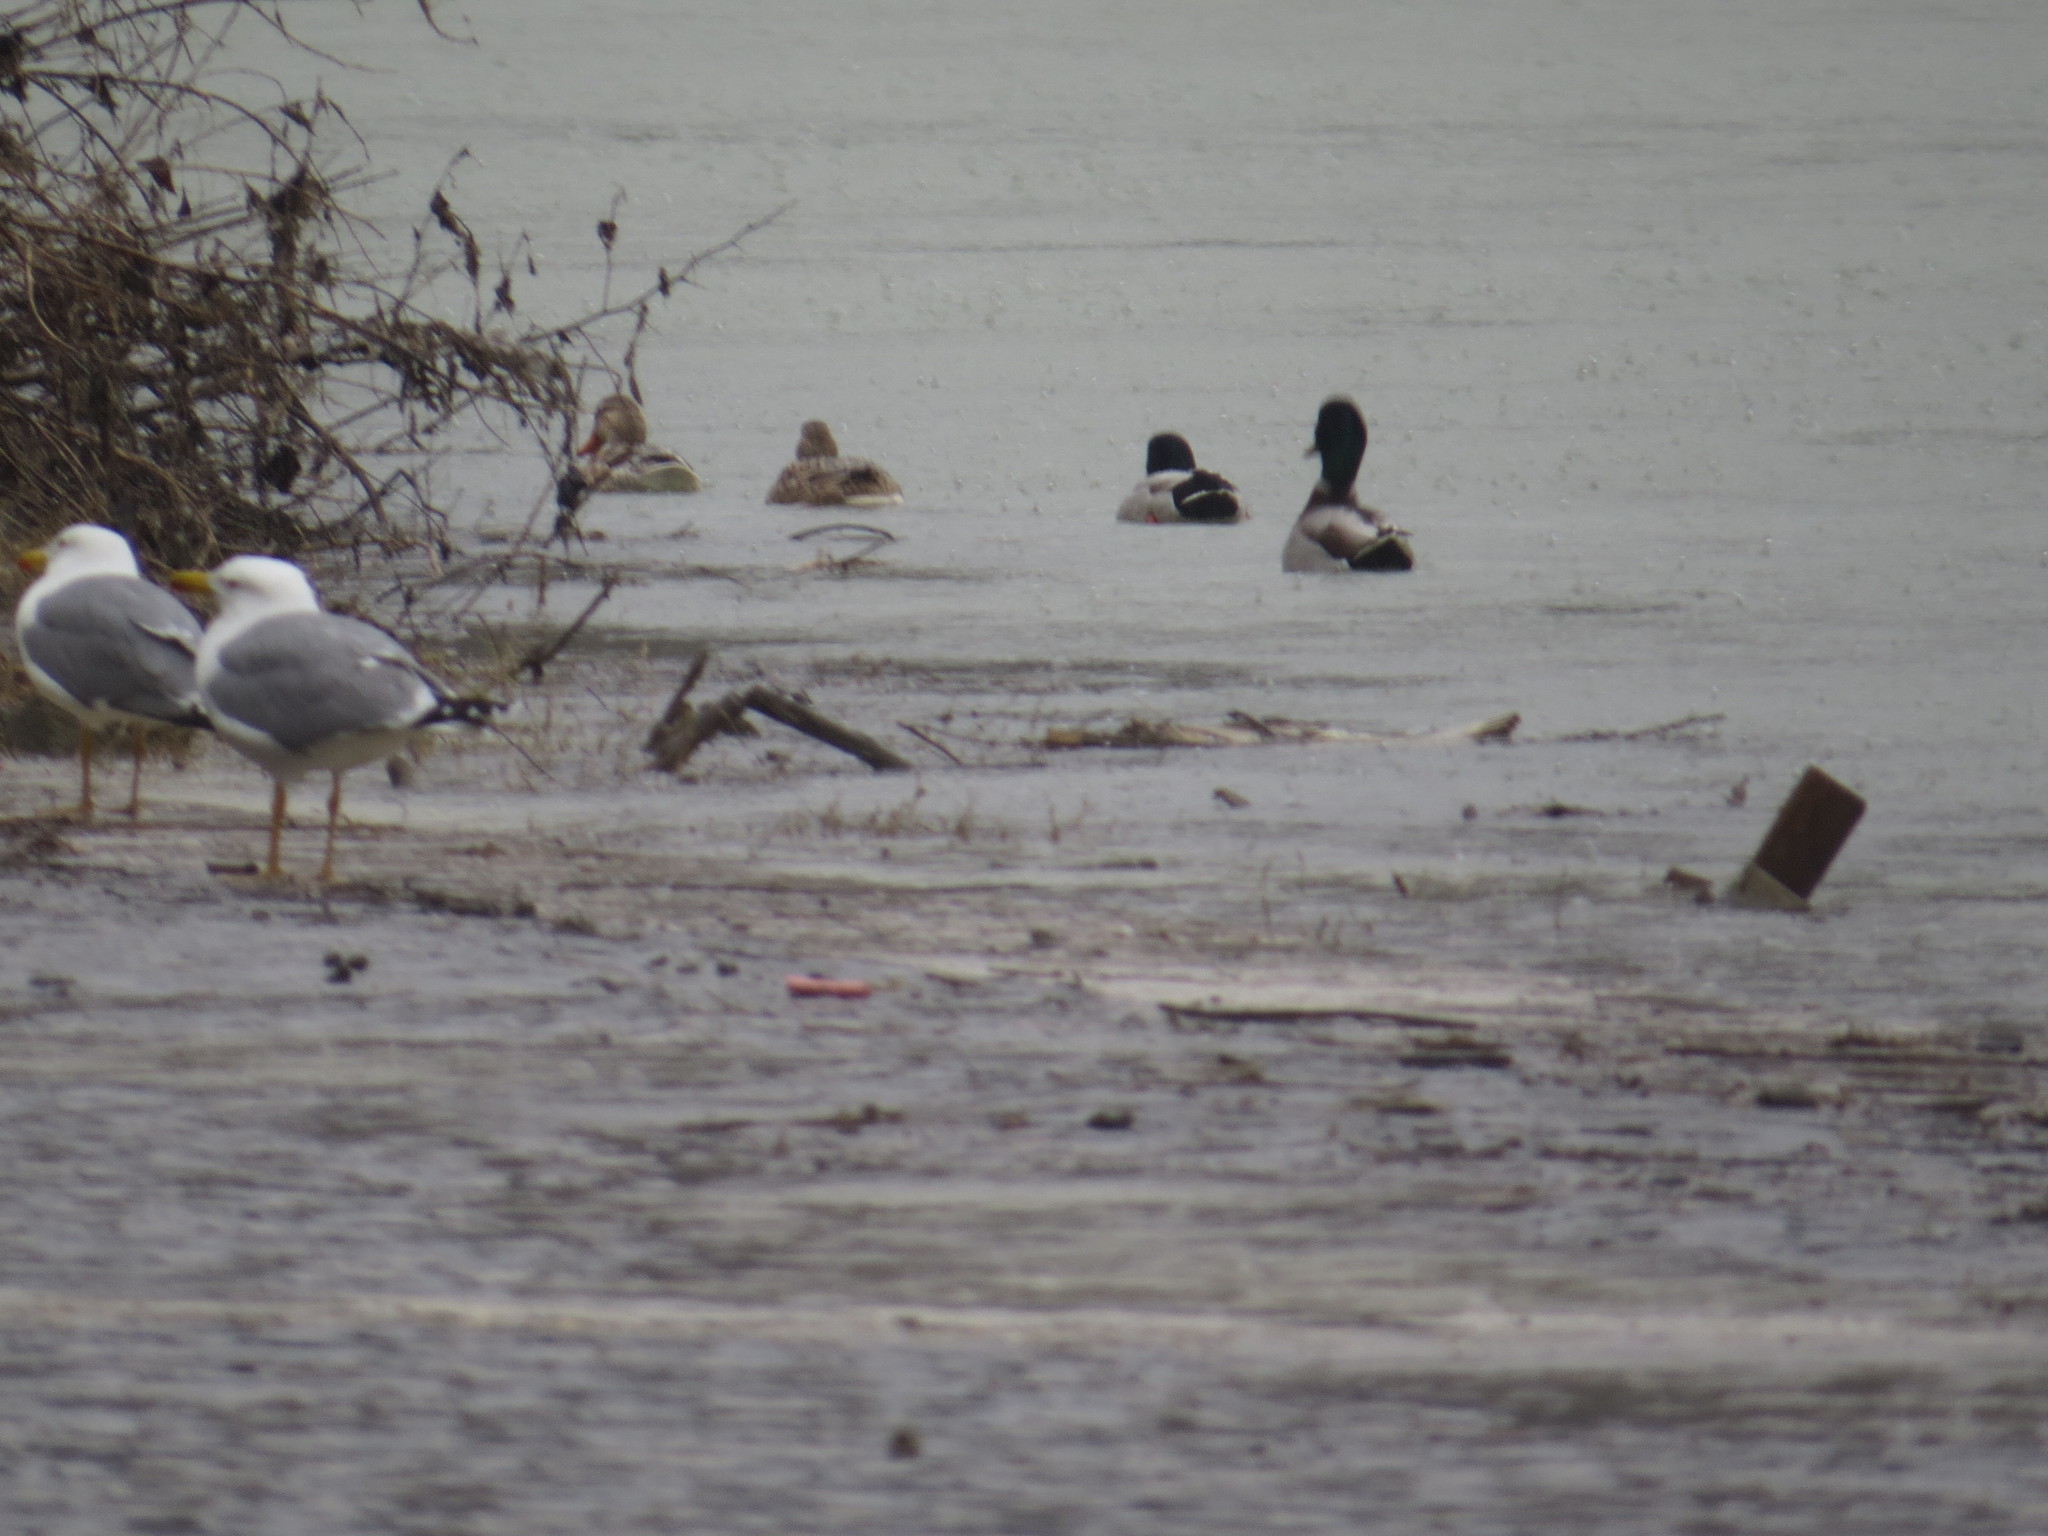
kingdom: Animalia
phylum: Chordata
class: Aves
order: Anseriformes
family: Anatidae
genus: Anas
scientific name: Anas platyrhynchos
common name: Mallard
